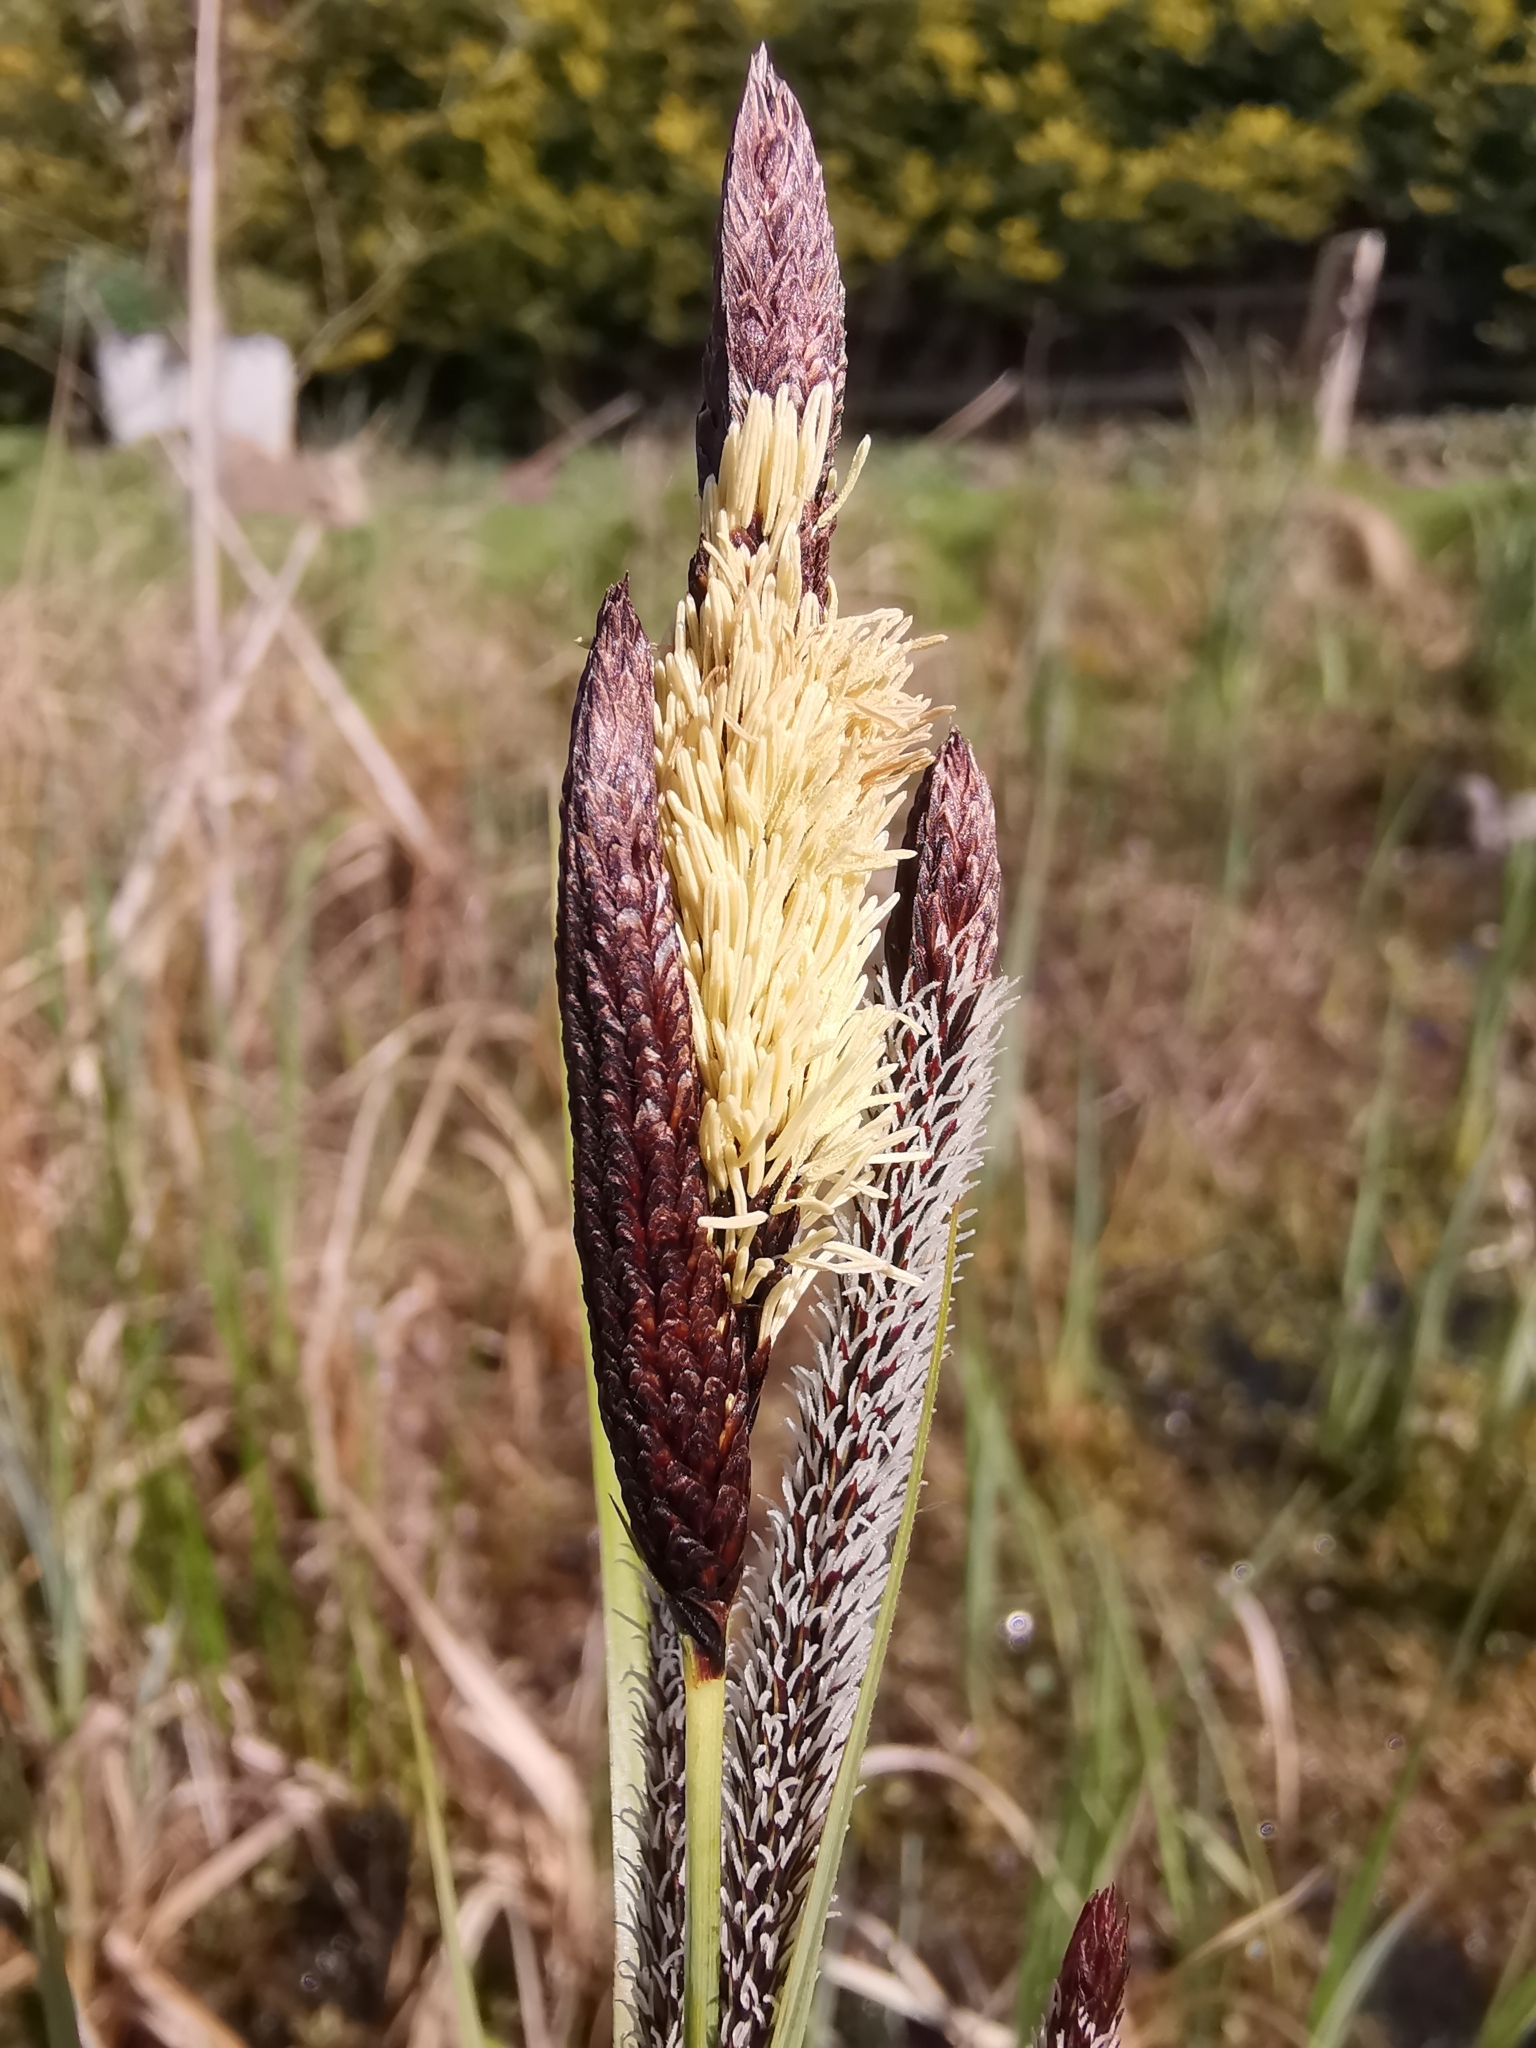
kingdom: Plantae
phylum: Tracheophyta
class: Liliopsida
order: Poales
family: Cyperaceae
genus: Carex
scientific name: Carex riparia
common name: Greater pond-sedge
